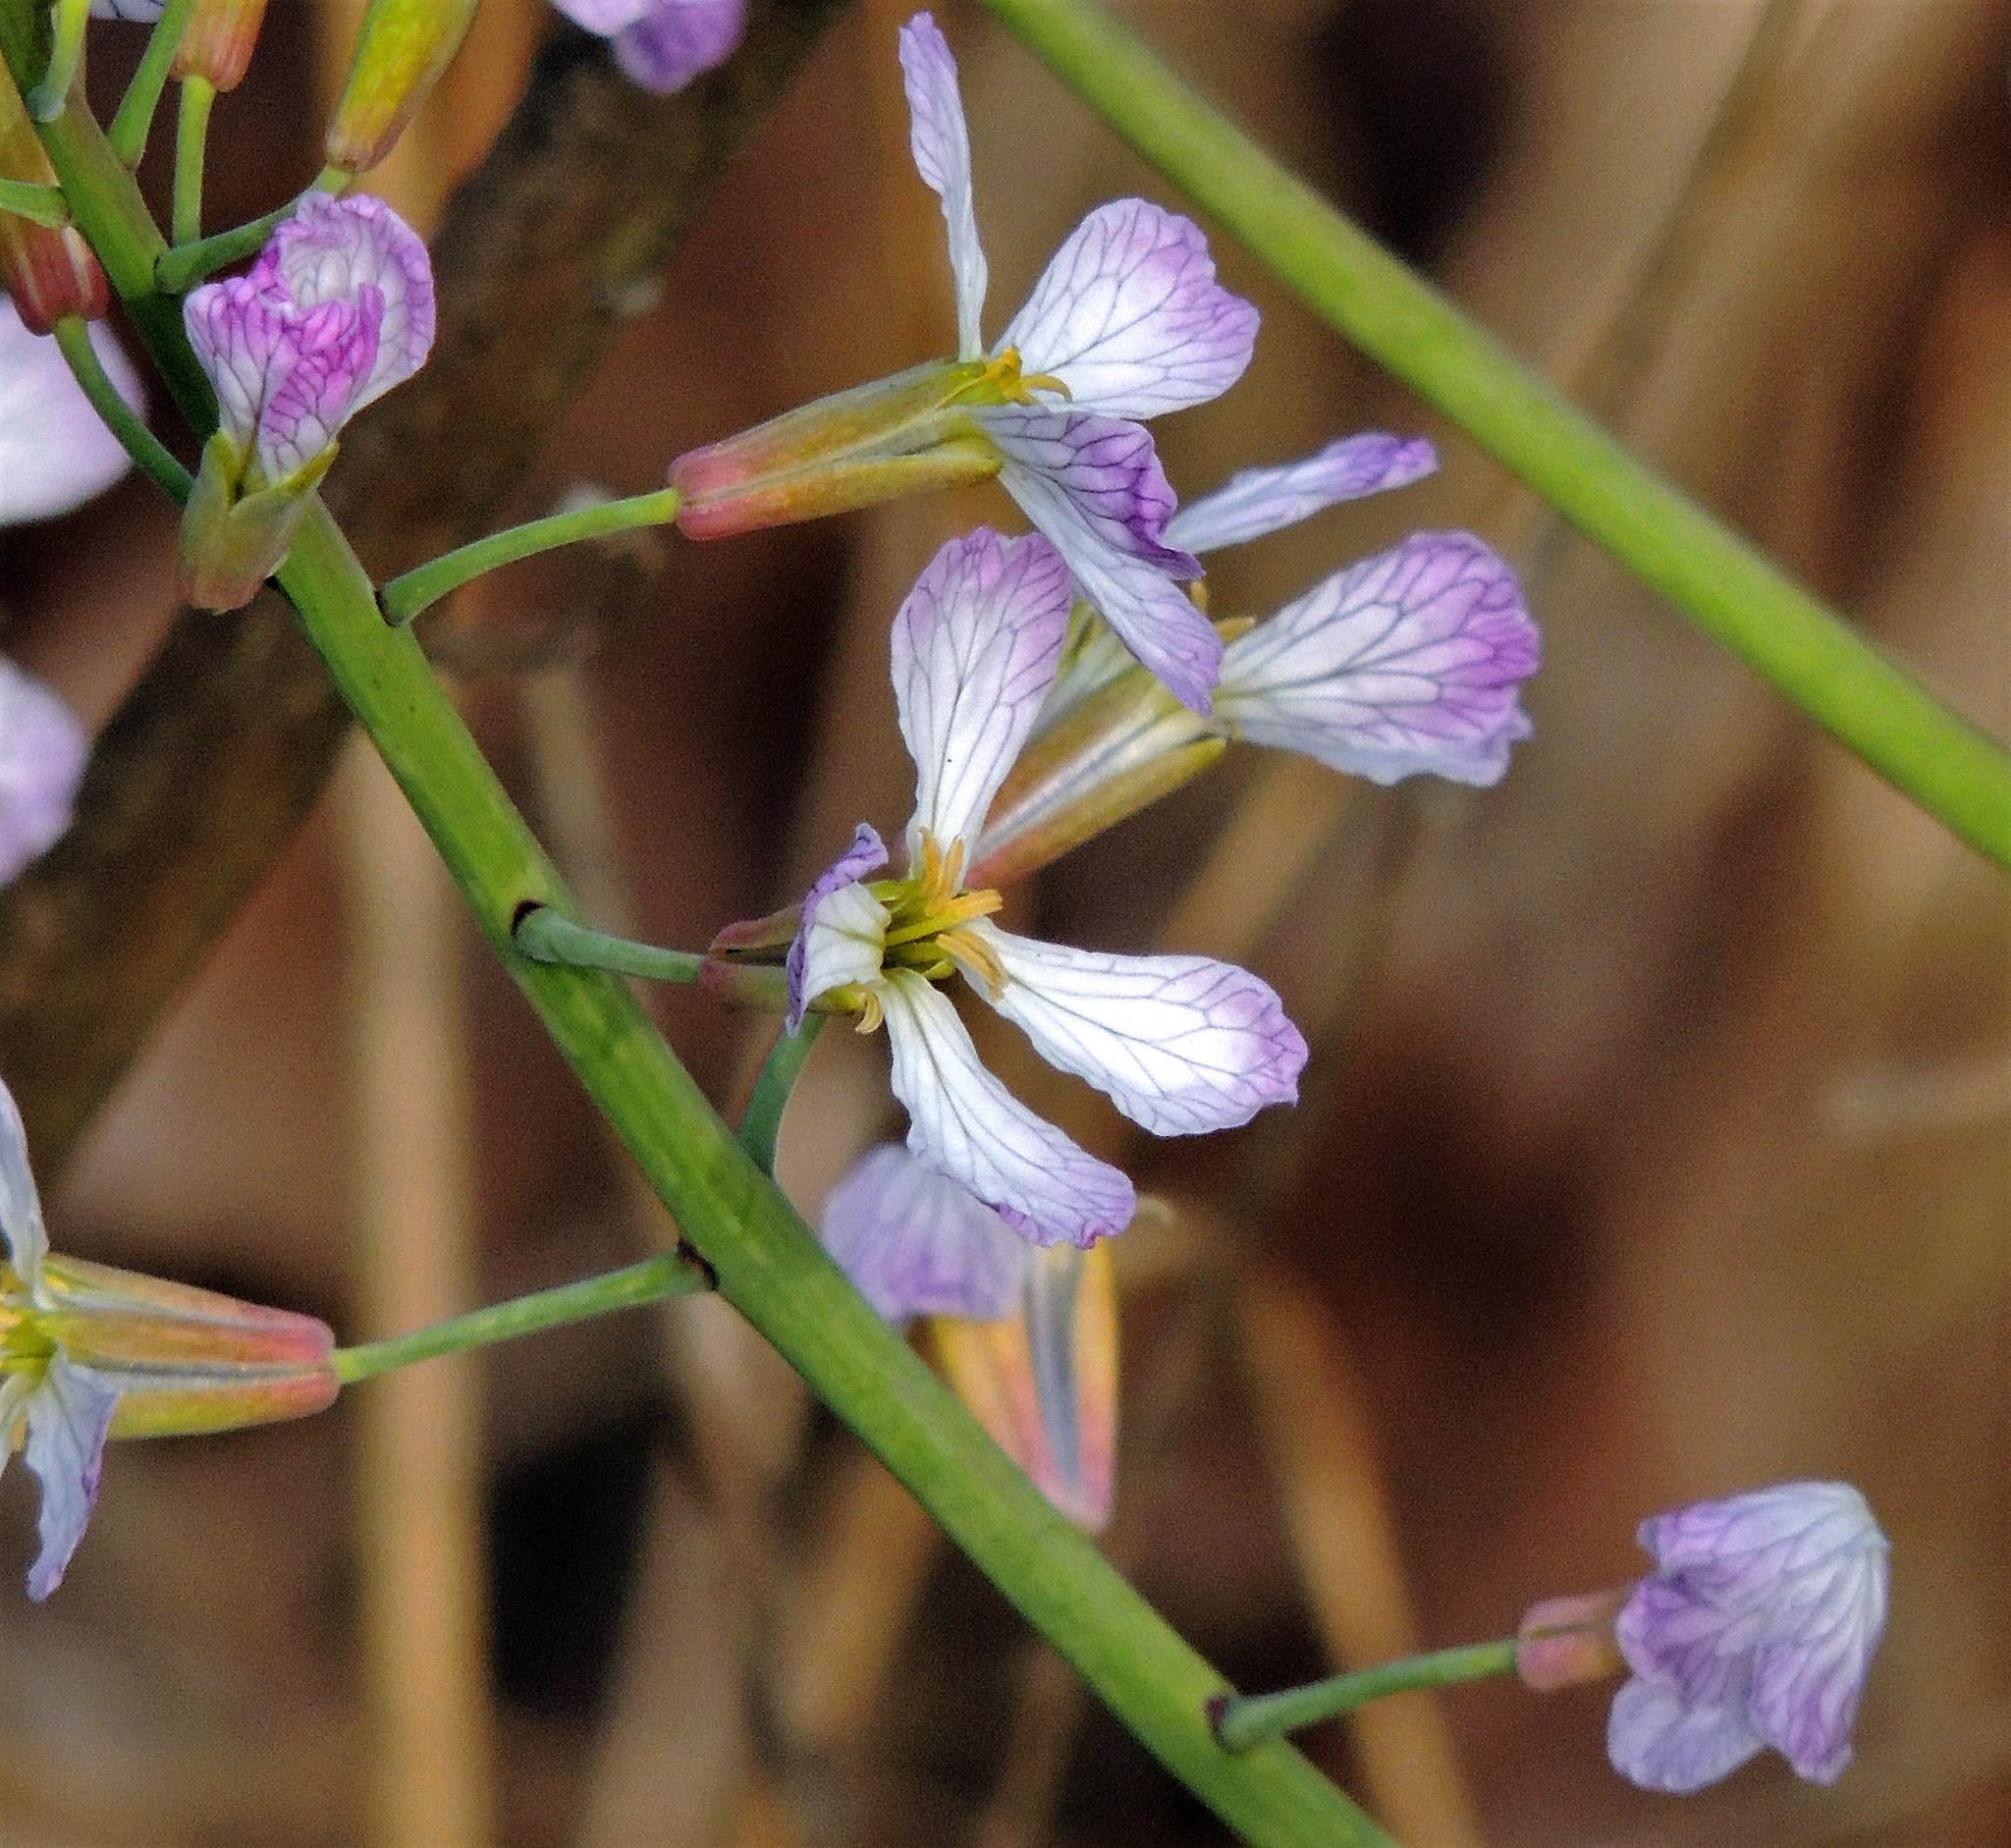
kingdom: Plantae
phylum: Tracheophyta
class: Magnoliopsida
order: Brassicales
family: Brassicaceae
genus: Raphanus
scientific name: Raphanus sativus
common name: Cultivated radish
